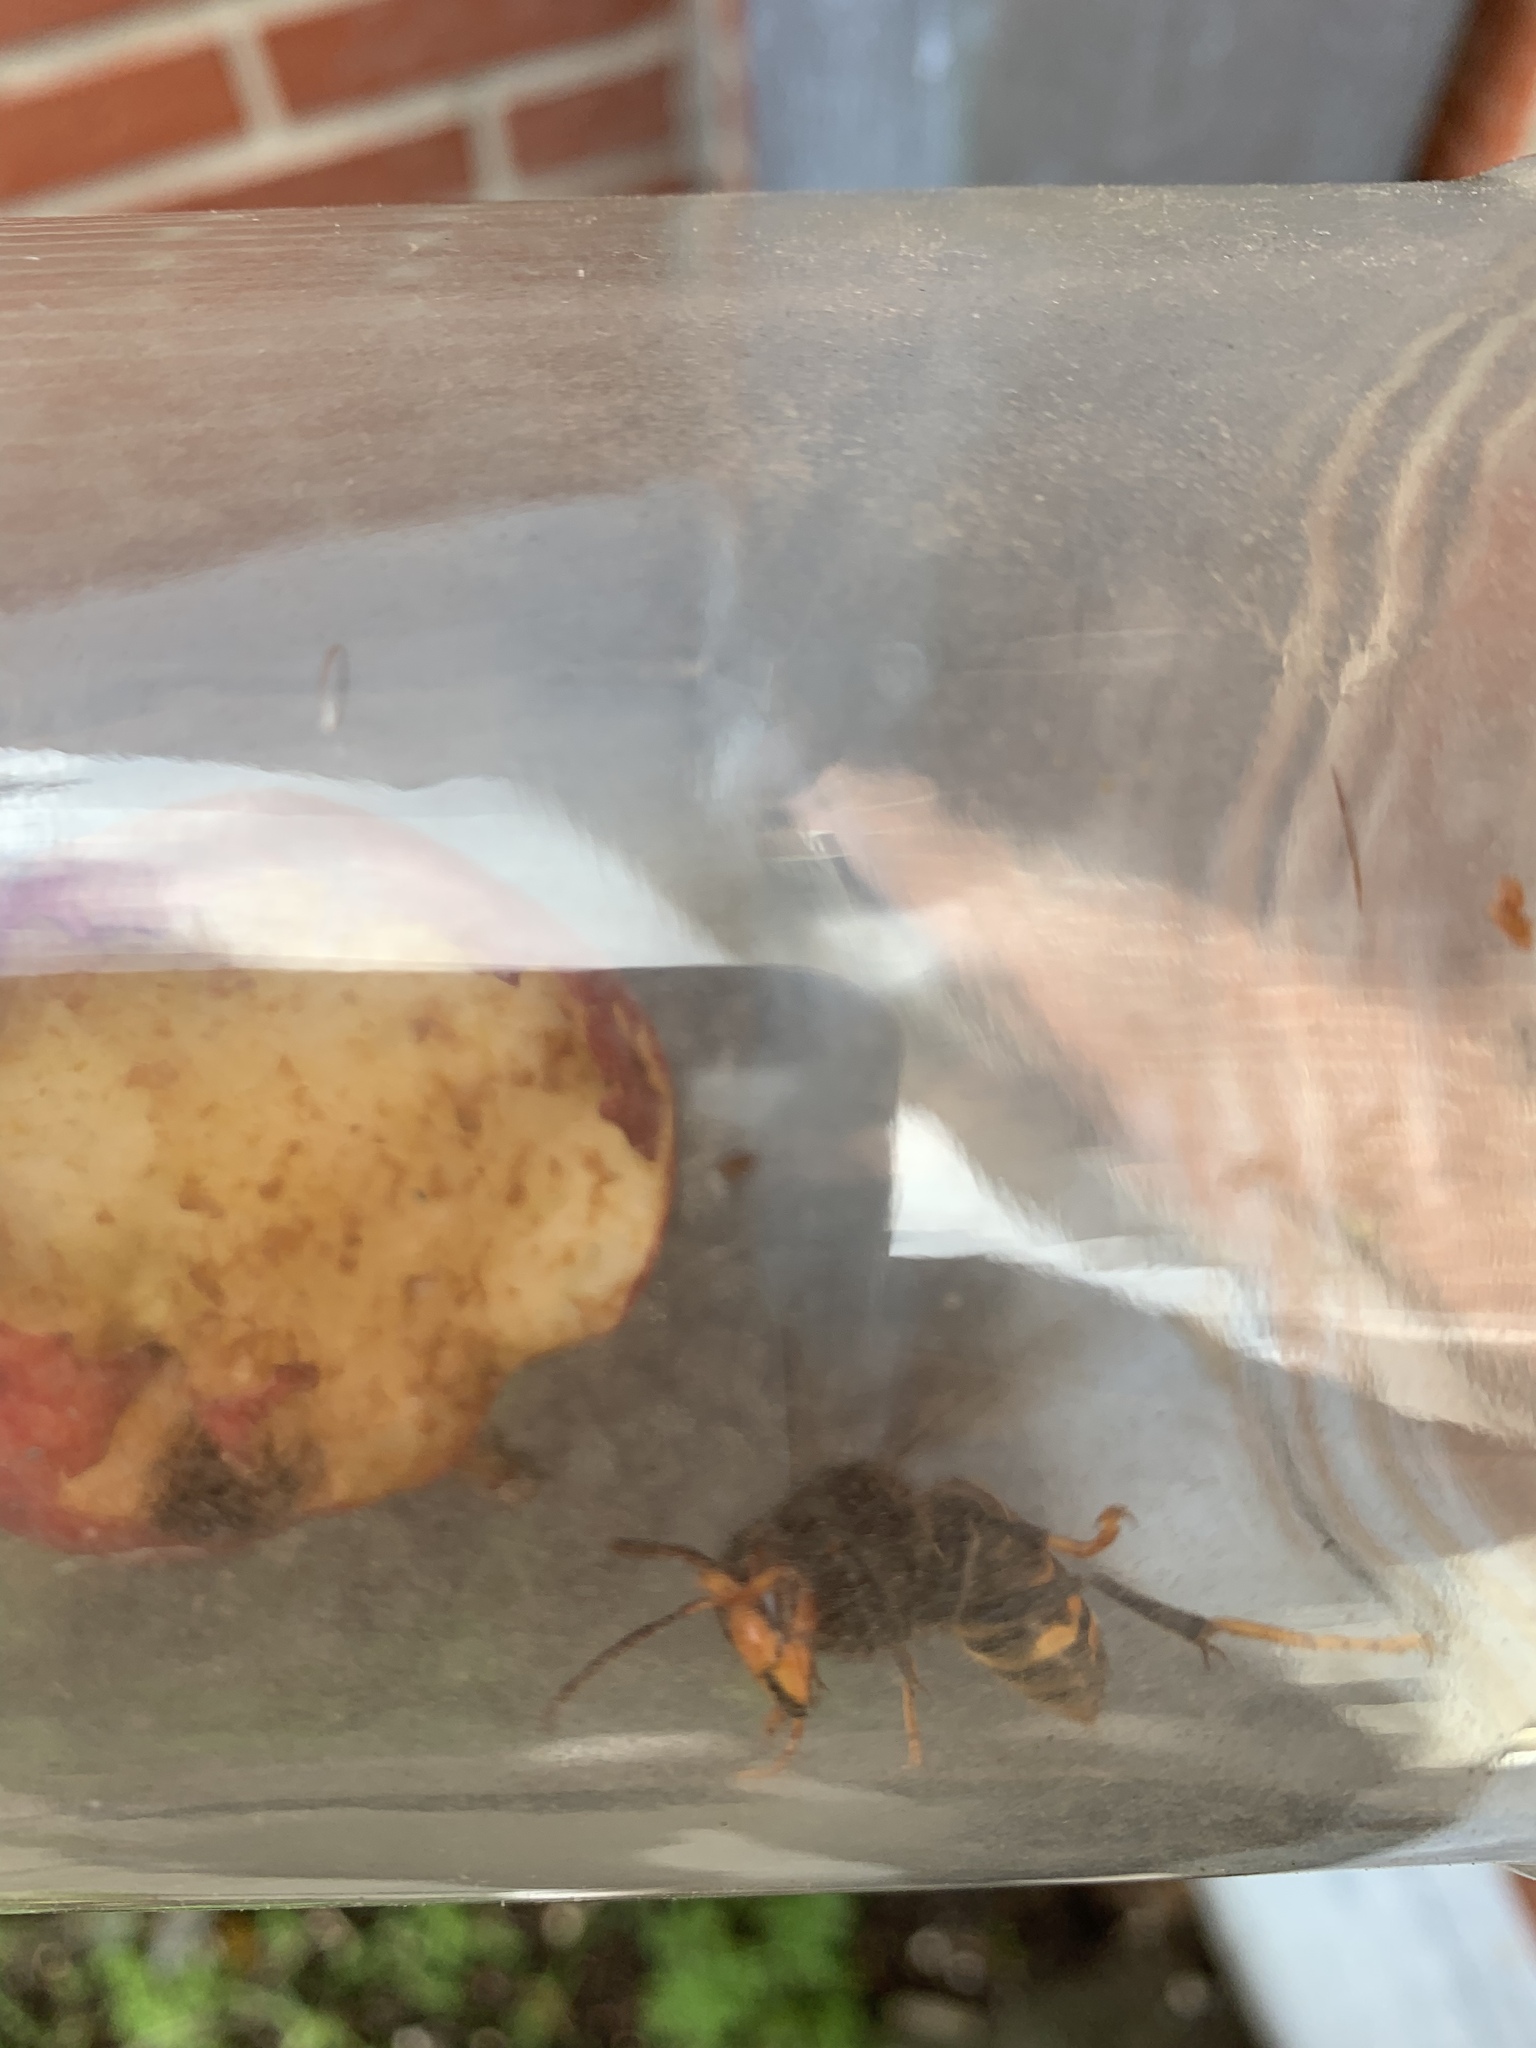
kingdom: Animalia
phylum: Arthropoda
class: Insecta
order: Hymenoptera
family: Vespidae
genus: Vespa
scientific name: Vespa velutina
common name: Asian hornet
